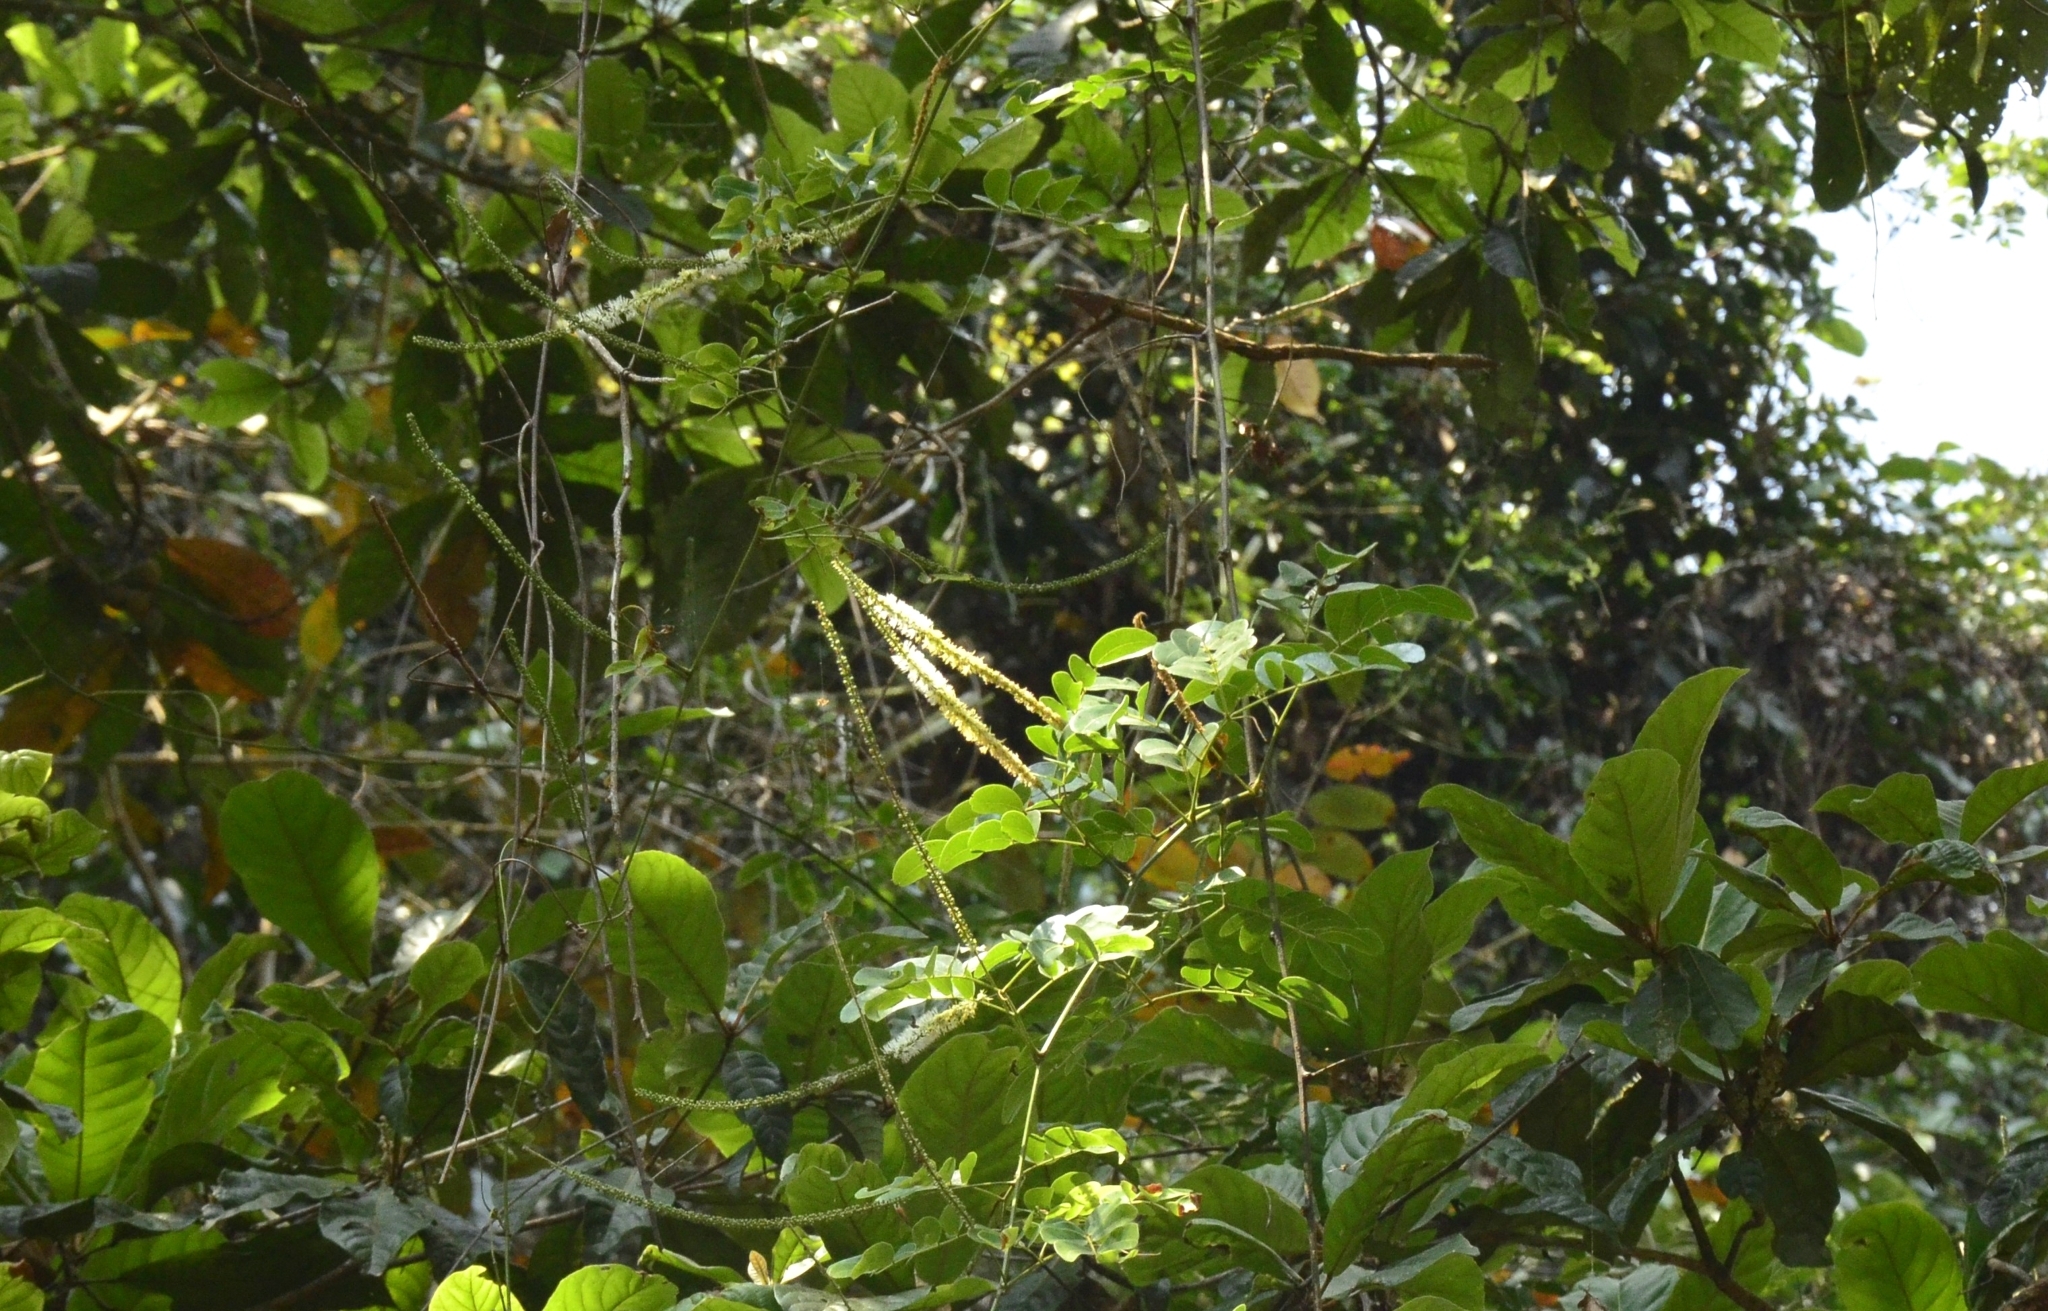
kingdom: Plantae
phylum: Tracheophyta
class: Magnoliopsida
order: Fabales
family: Fabaceae
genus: Entada
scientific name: Entada rheedei
